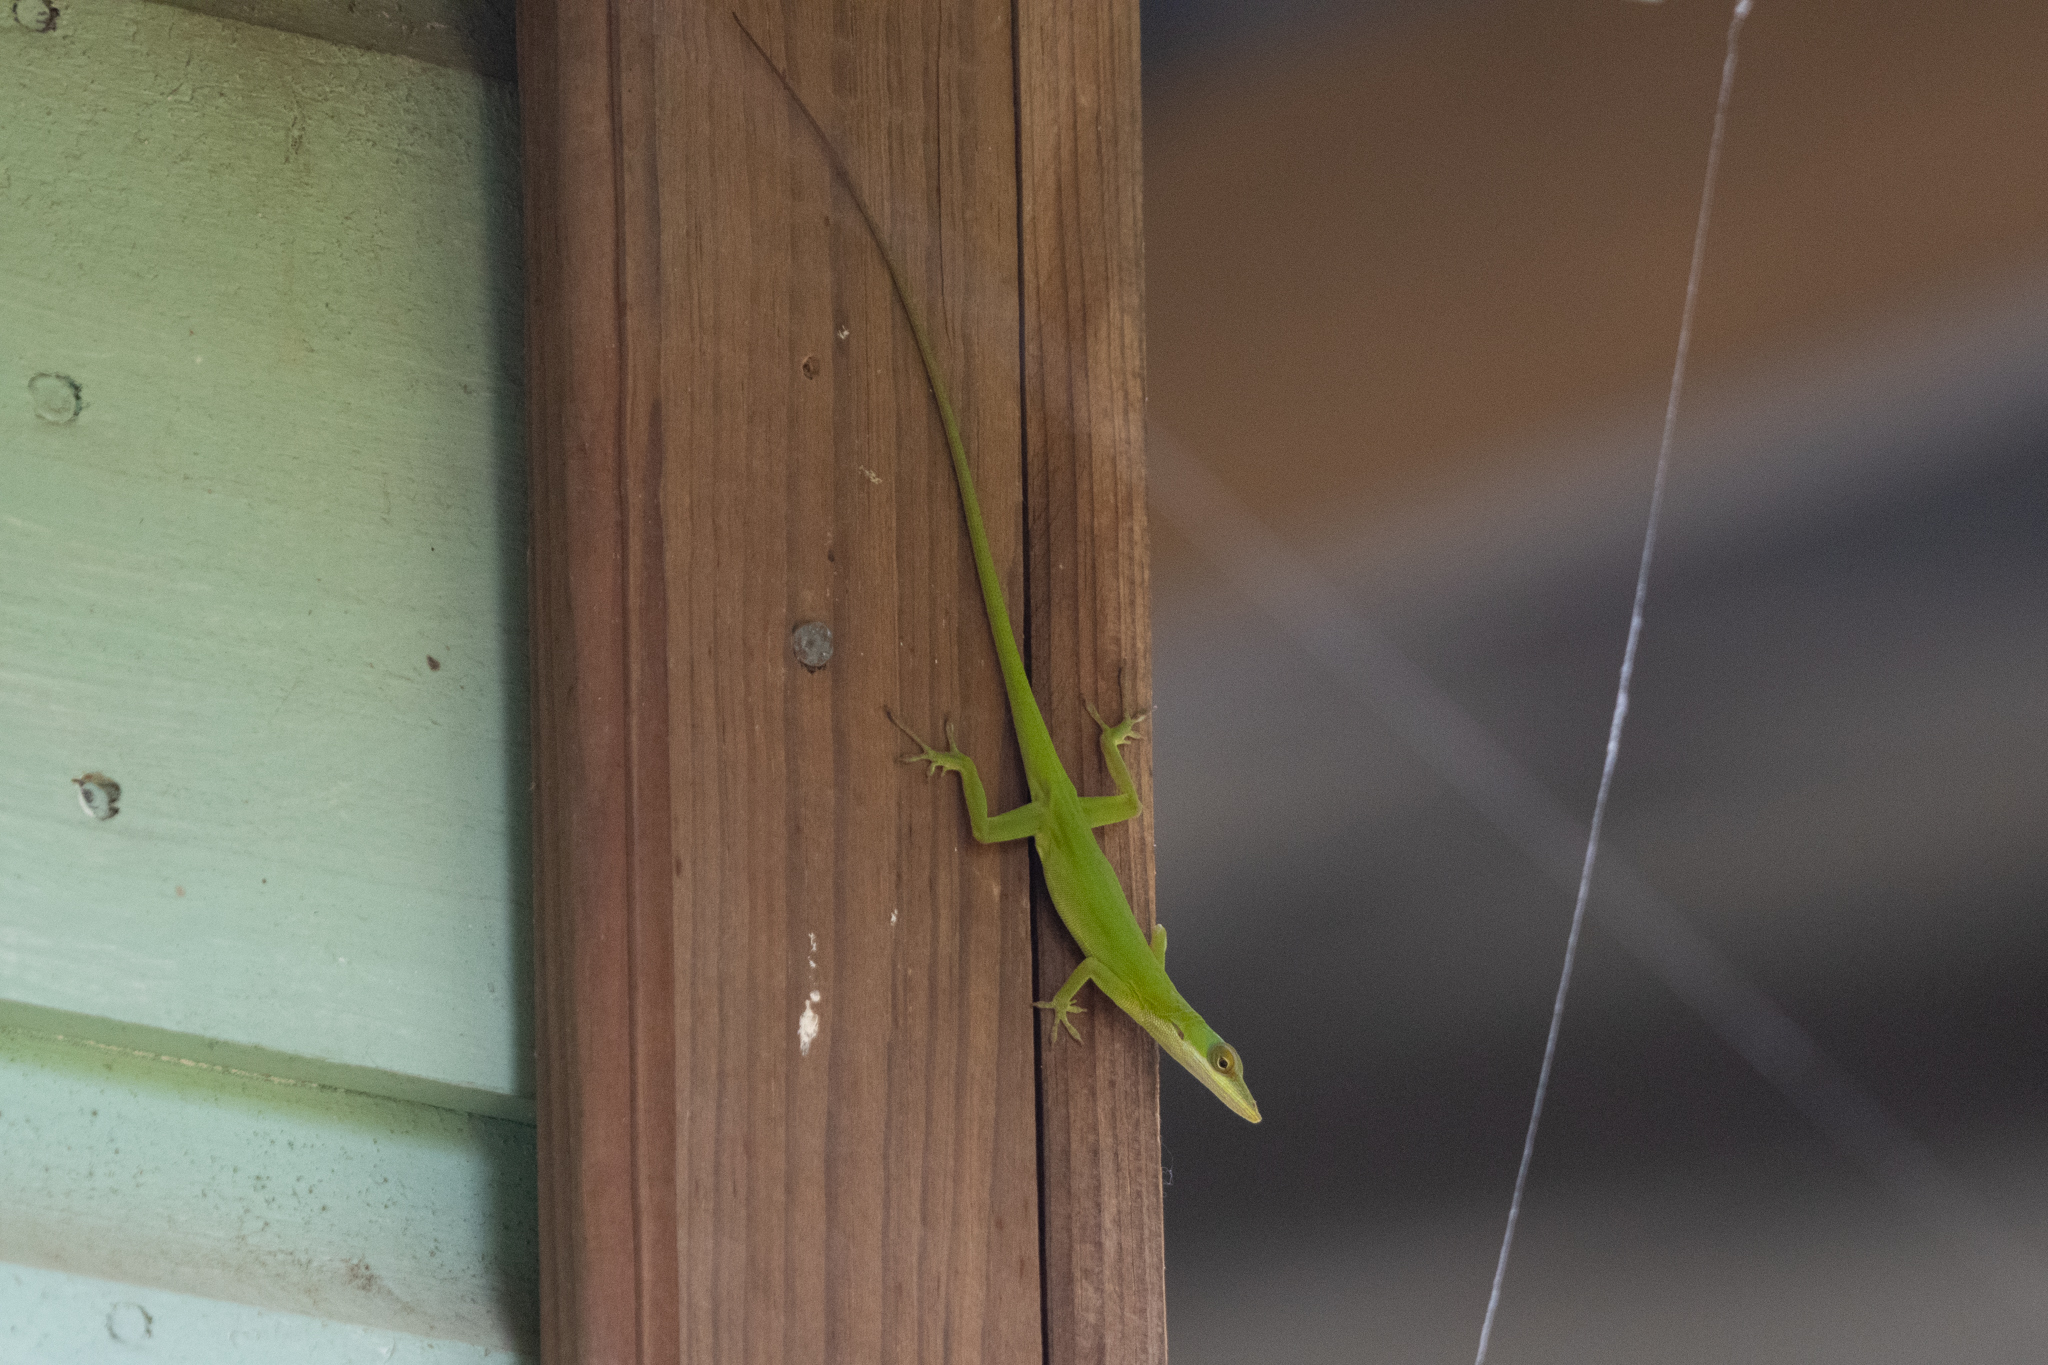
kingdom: Animalia
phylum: Chordata
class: Squamata
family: Dactyloidae
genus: Anolis
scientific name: Anolis allisoni
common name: Allison's anole
